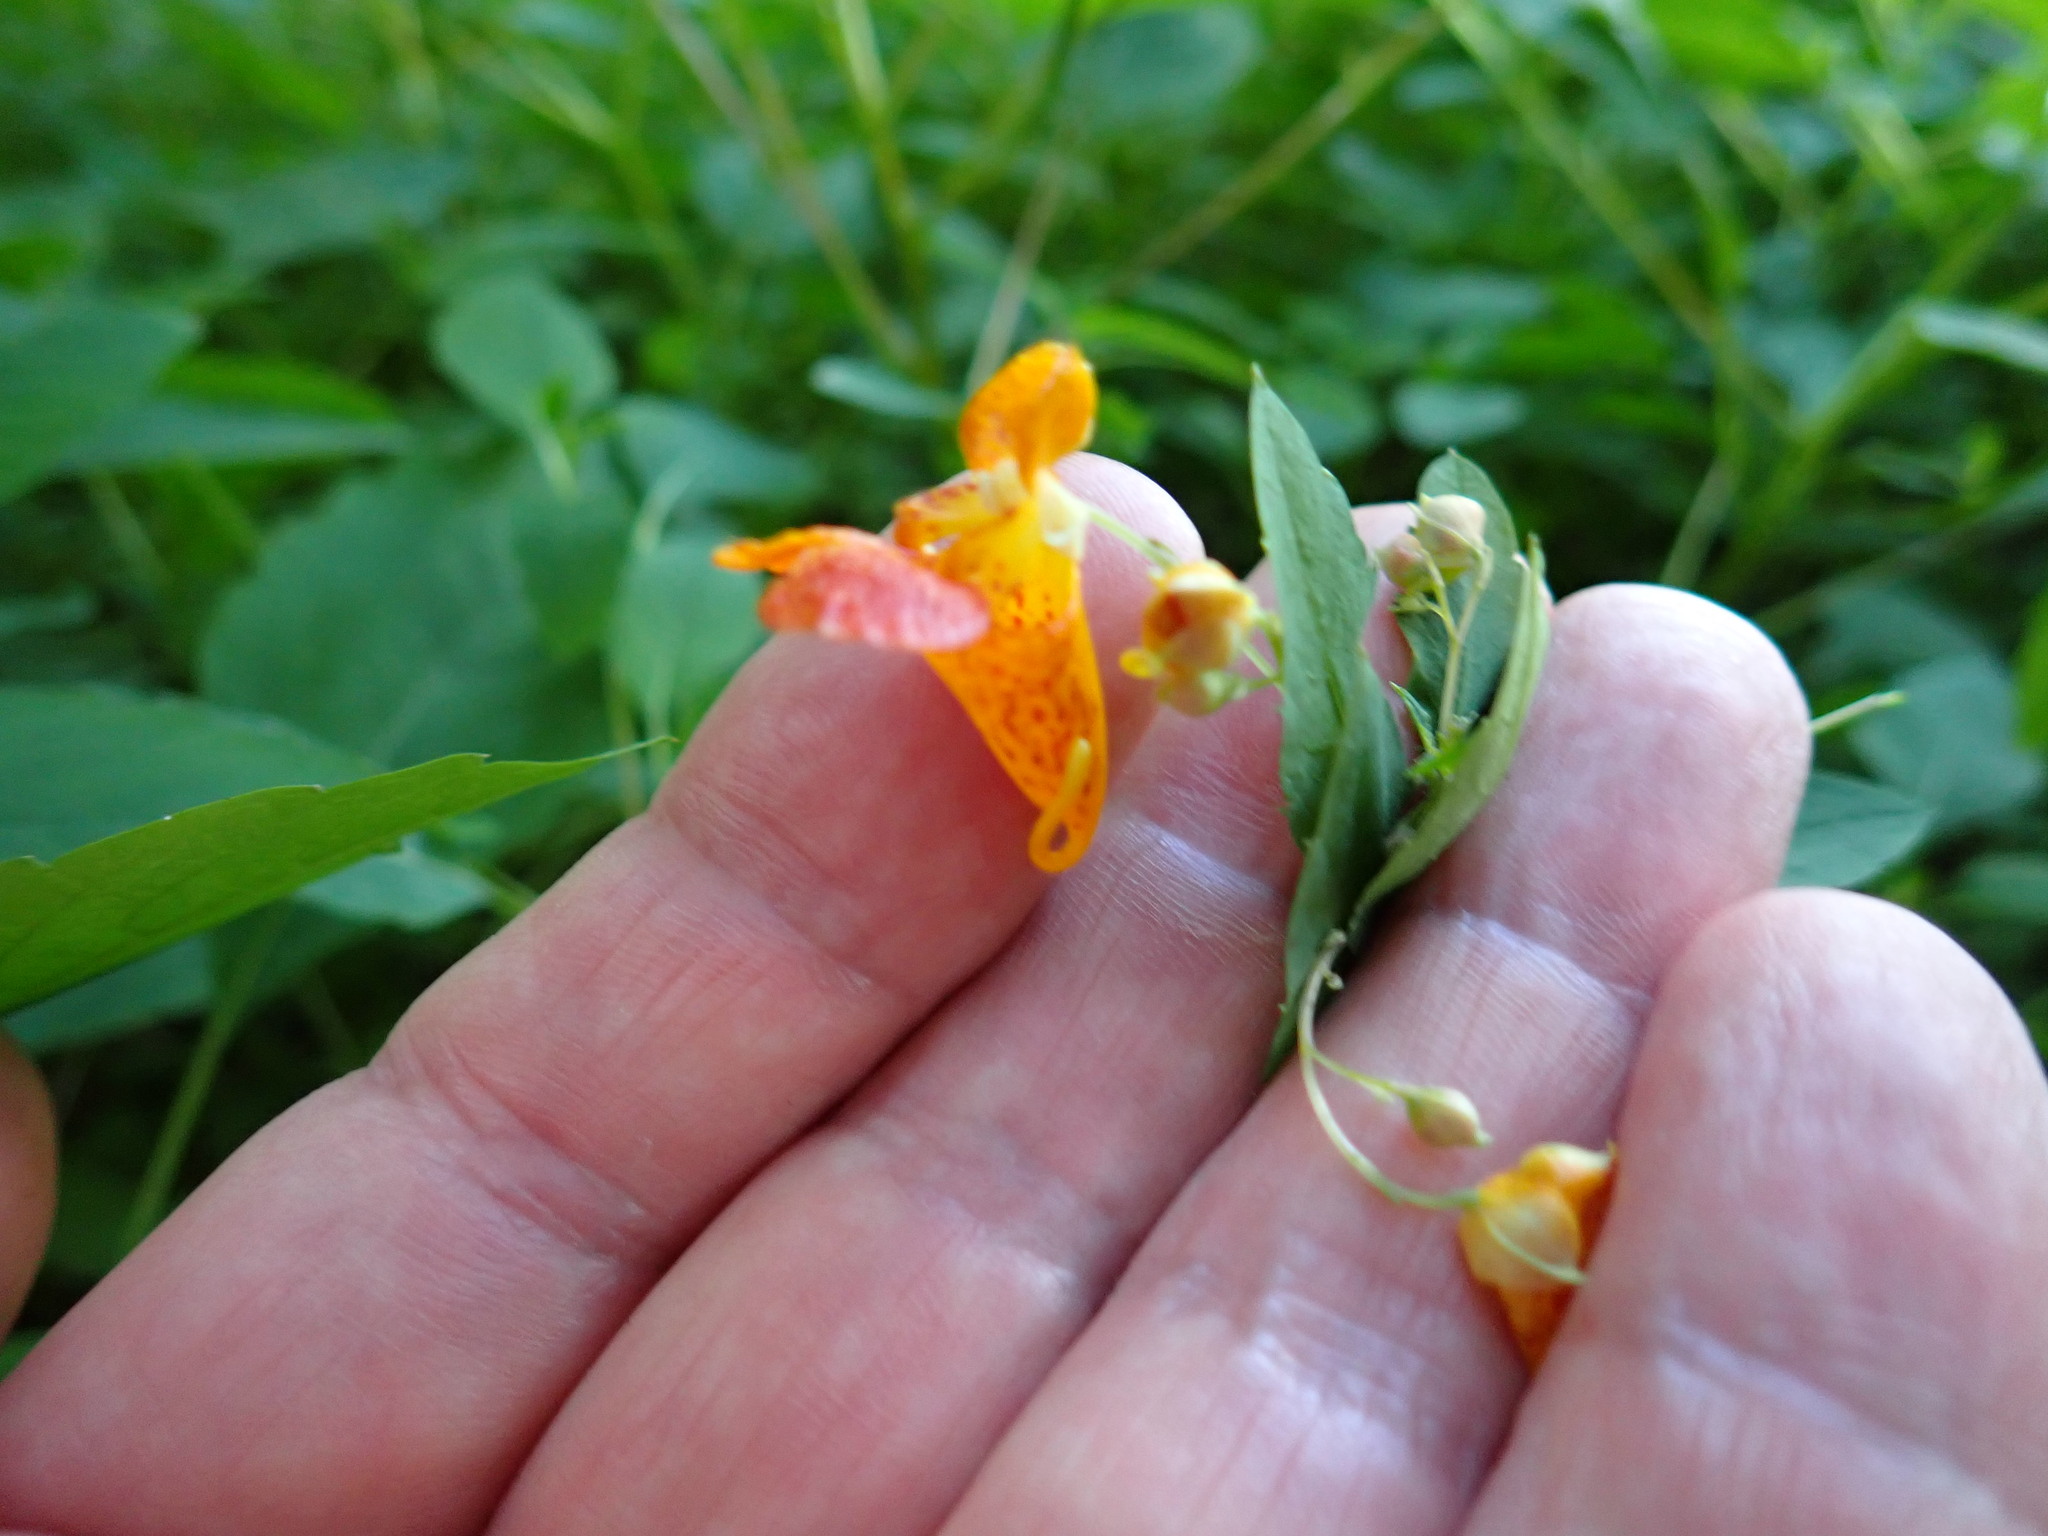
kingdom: Plantae
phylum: Tracheophyta
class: Magnoliopsida
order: Ericales
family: Balsaminaceae
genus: Impatiens
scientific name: Impatiens capensis
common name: Orange balsam
